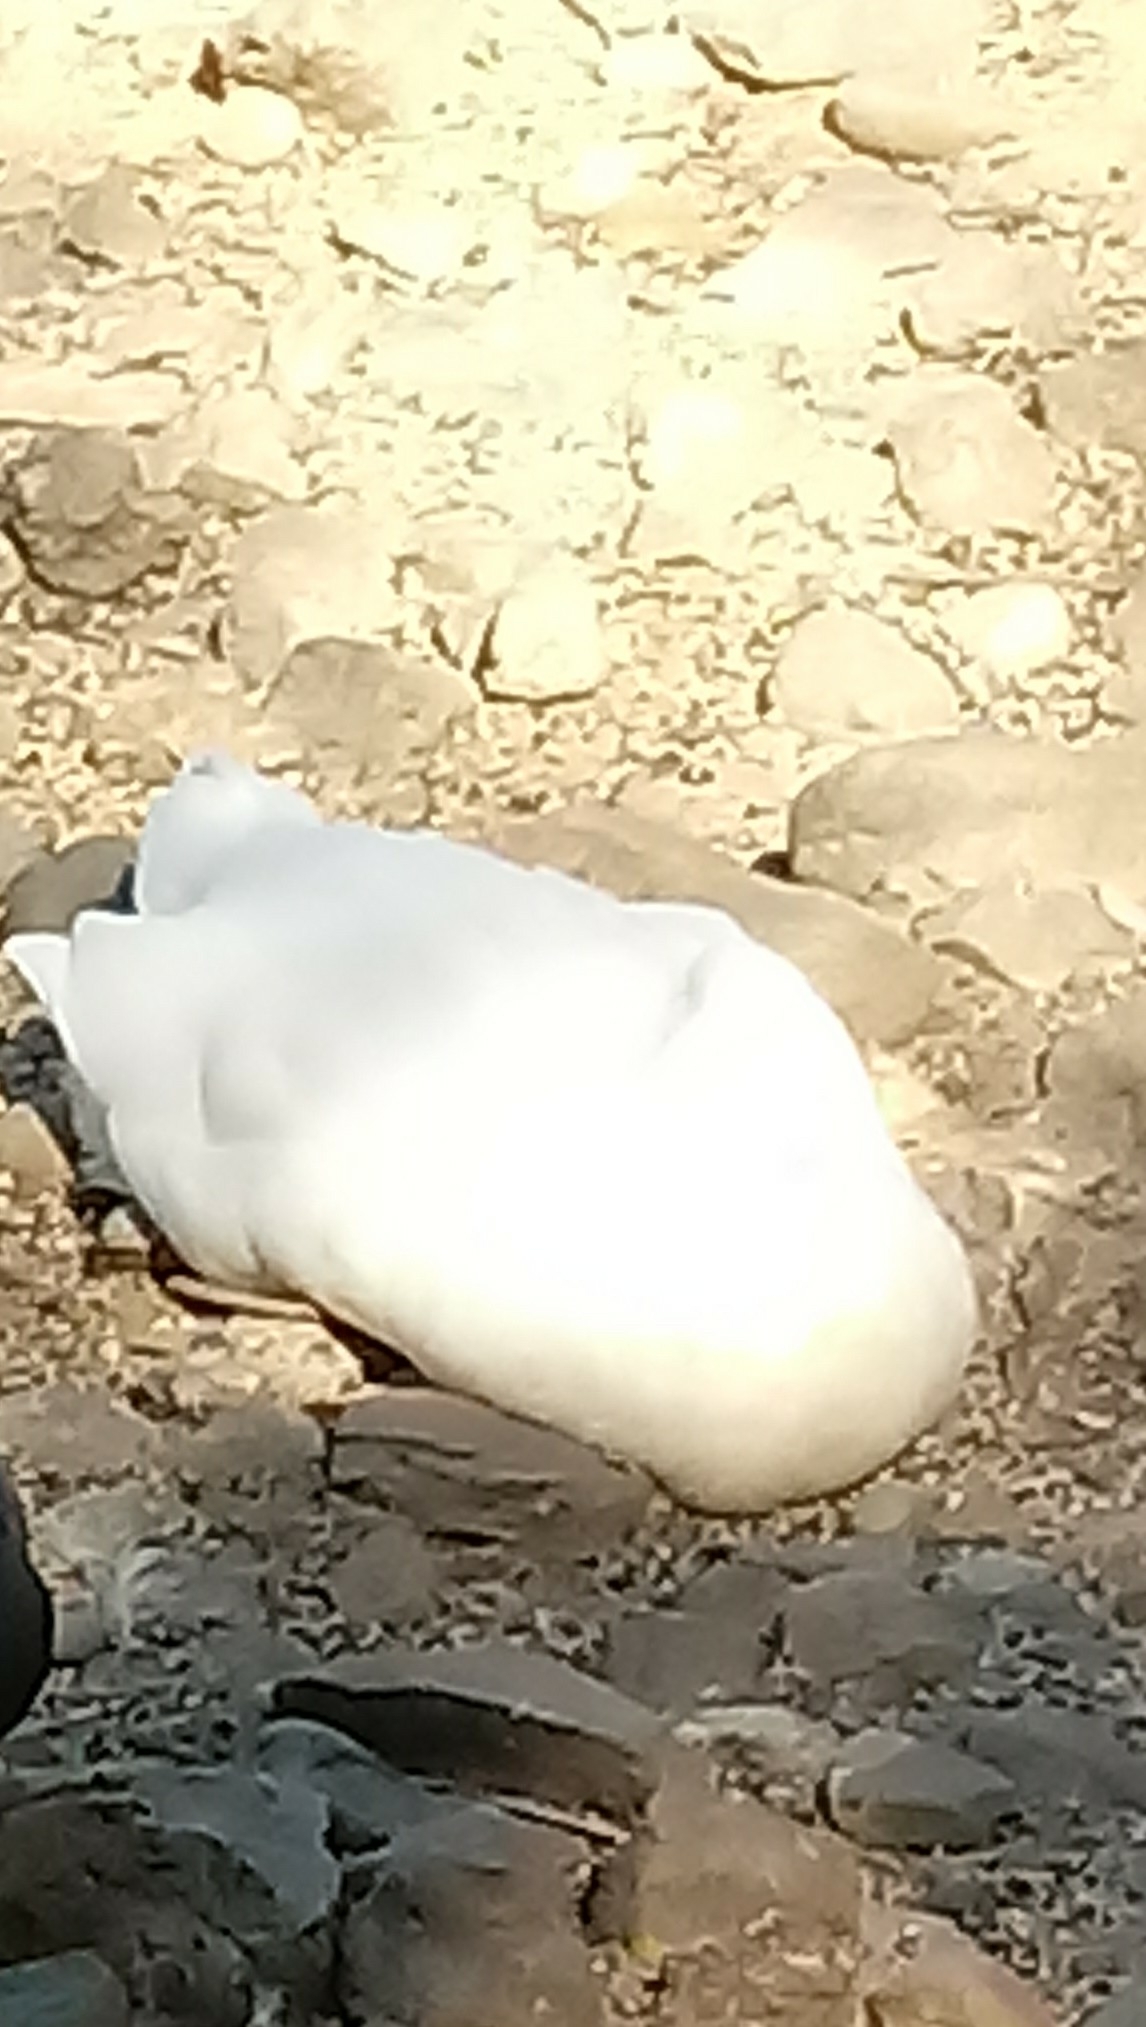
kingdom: Animalia
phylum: Chordata
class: Aves
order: Anseriformes
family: Anatidae
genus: Anas
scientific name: Anas platyrhynchos
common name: Mallard
